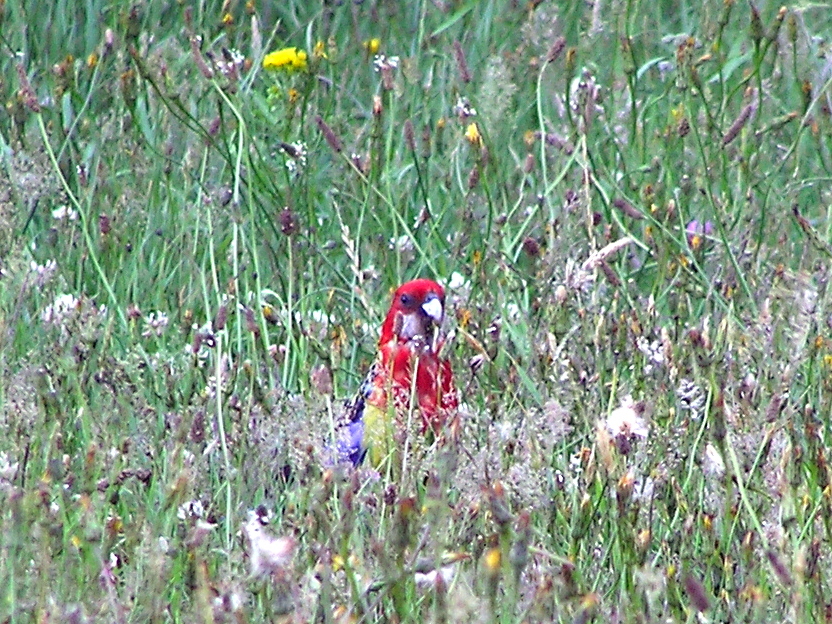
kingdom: Animalia
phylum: Chordata
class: Aves
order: Psittaciformes
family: Psittacidae
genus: Platycercus
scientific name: Platycercus eximius
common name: Eastern rosella
